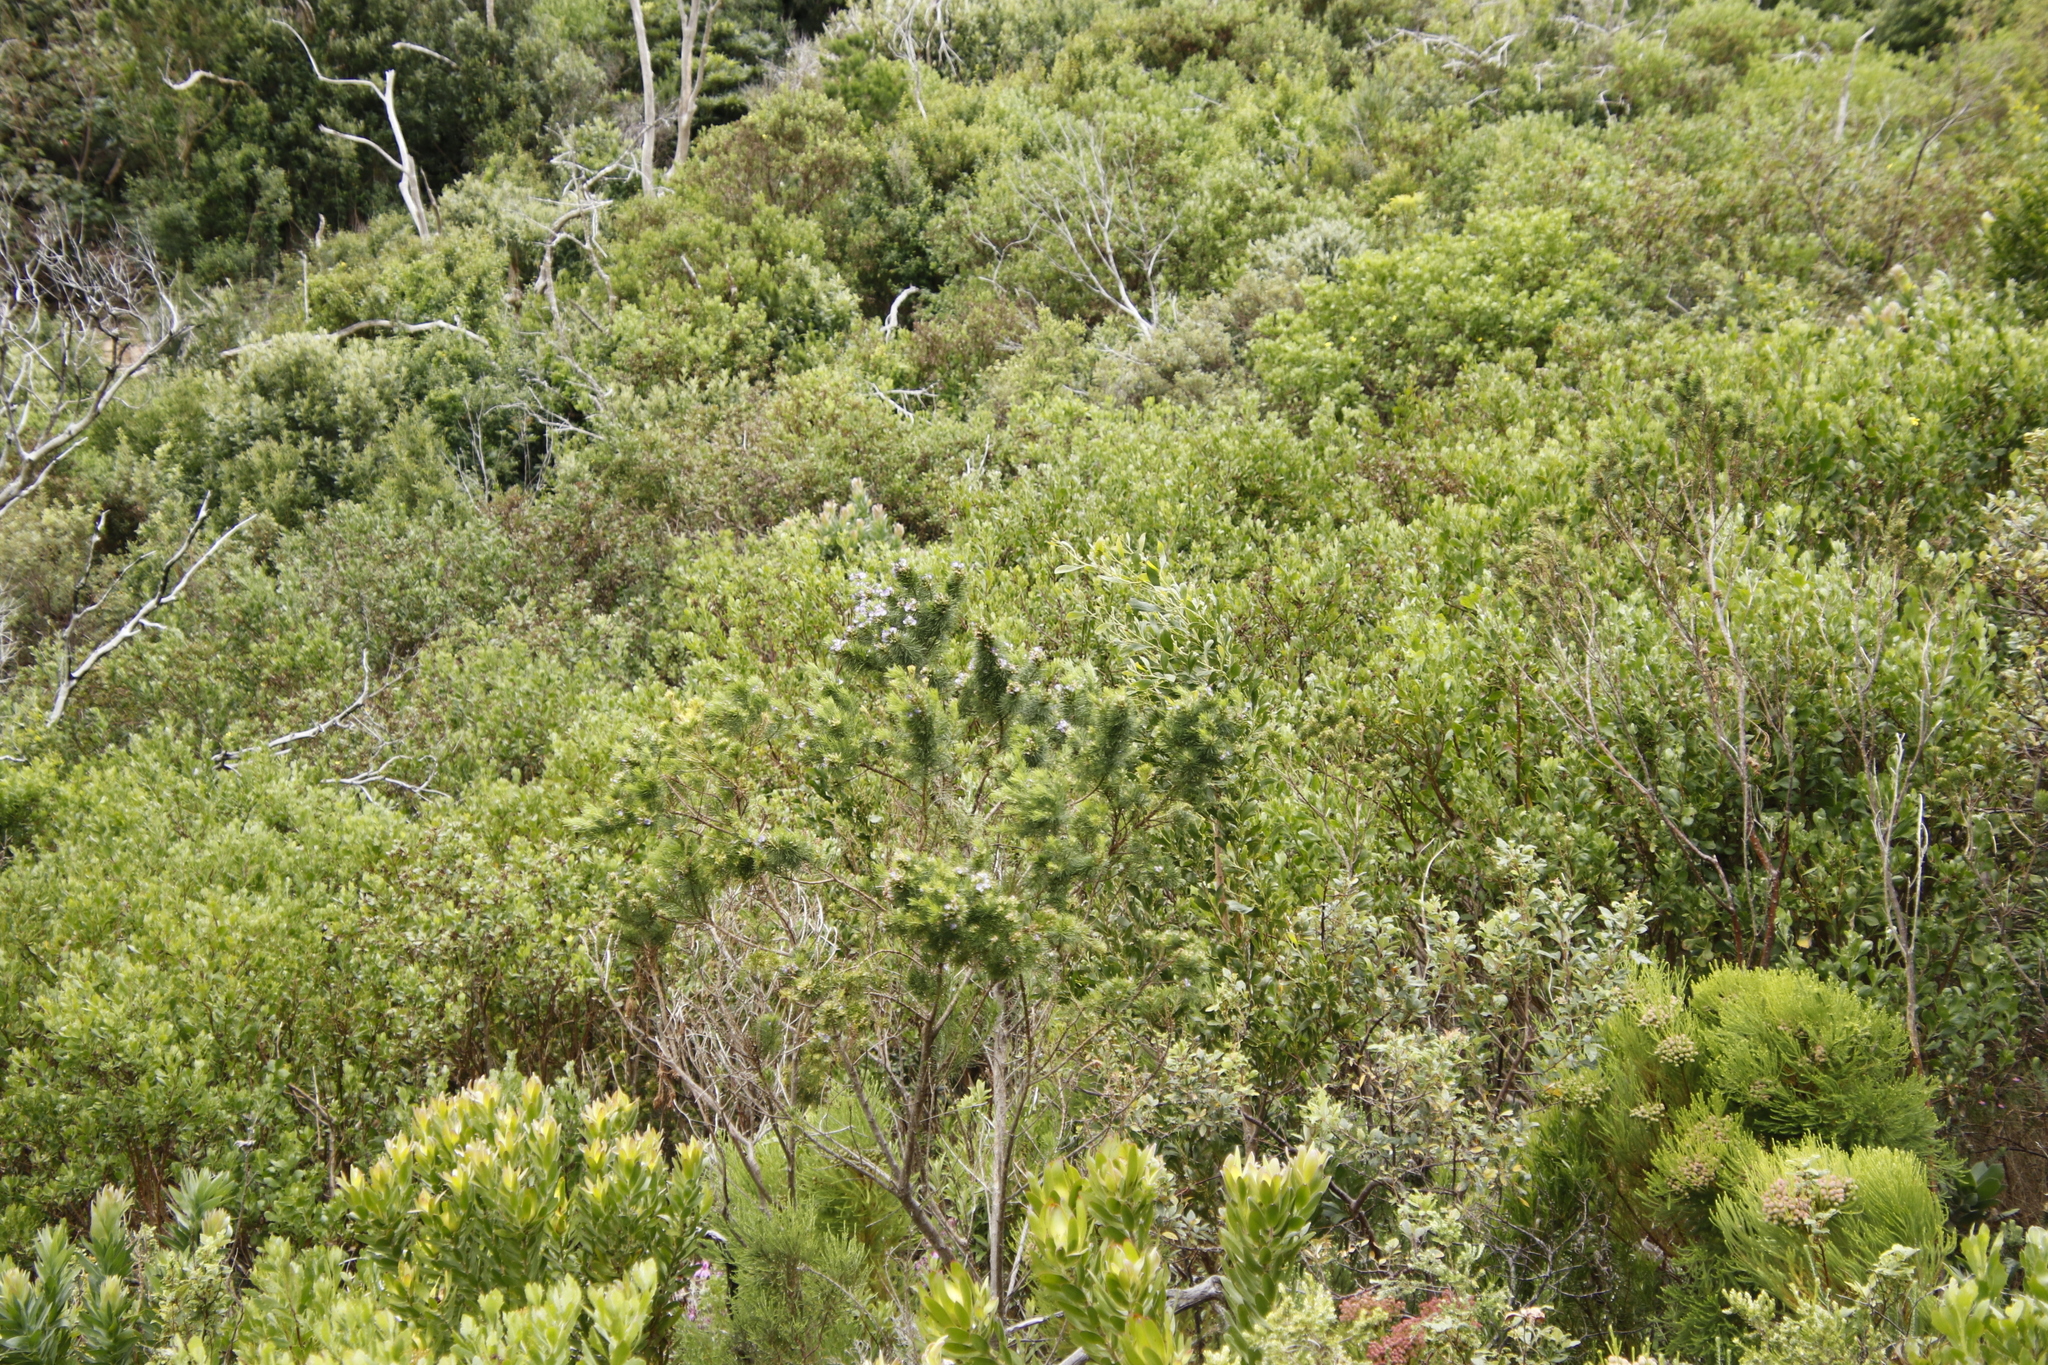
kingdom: Plantae
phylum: Tracheophyta
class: Magnoliopsida
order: Fabales
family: Fabaceae
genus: Psoralea
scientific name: Psoralea pinnata
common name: African scurfpea
